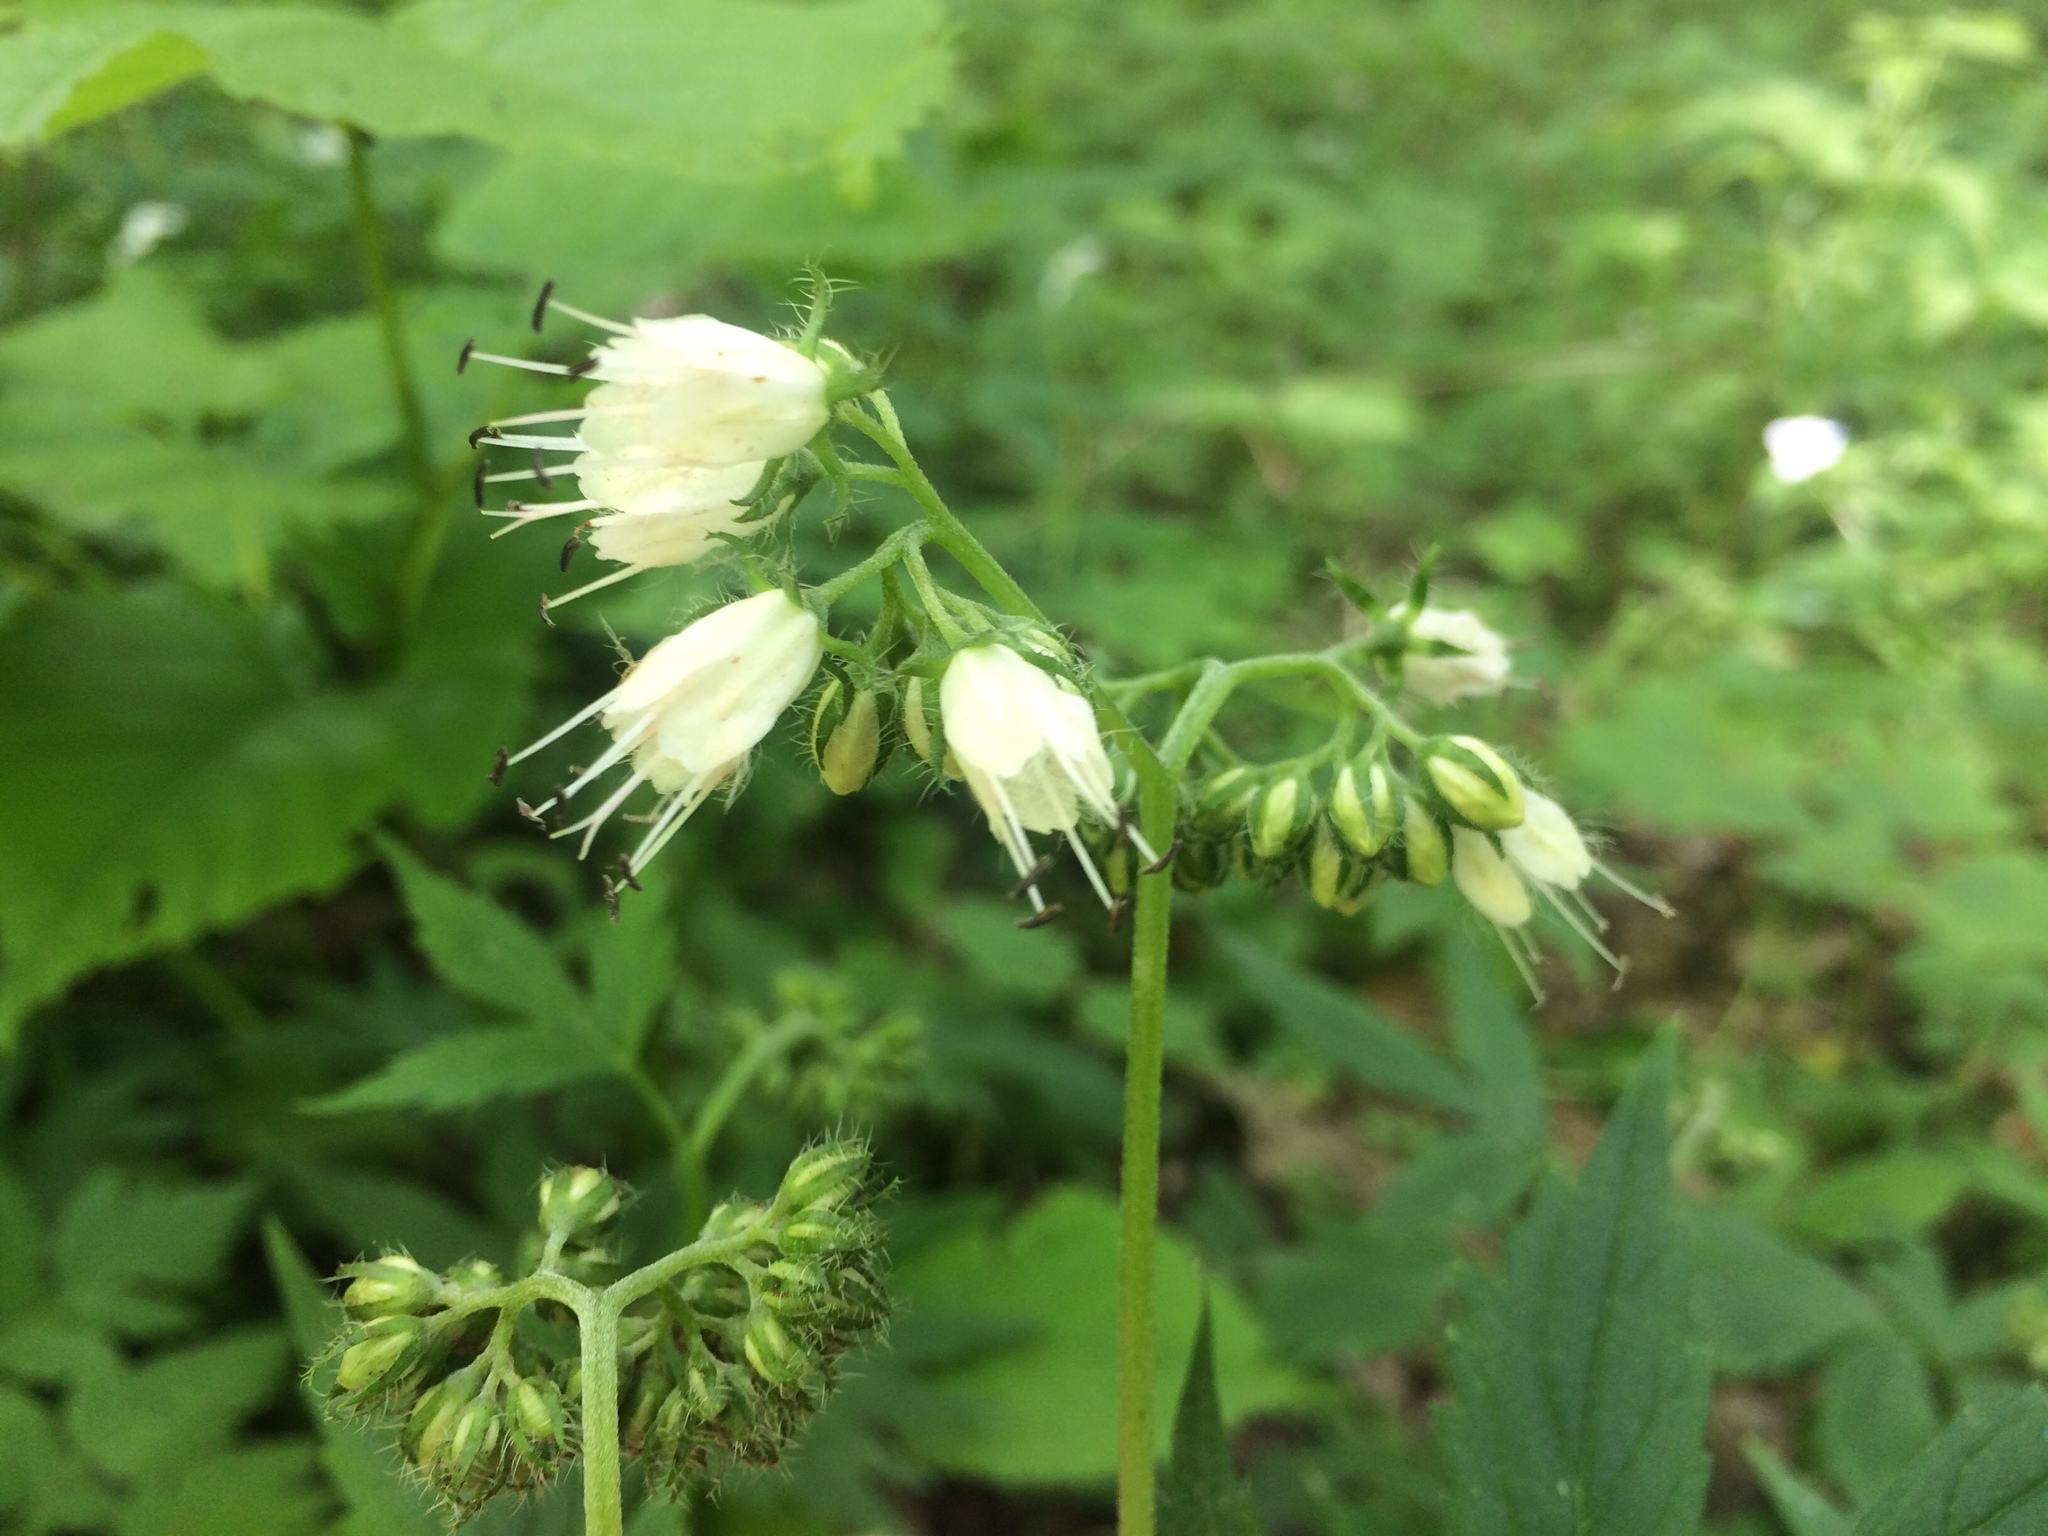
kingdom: Plantae
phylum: Tracheophyta
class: Magnoliopsida
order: Boraginales
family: Hydrophyllaceae
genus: Hydrophyllum
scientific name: Hydrophyllum virginianum
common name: Virginia waterleaf
